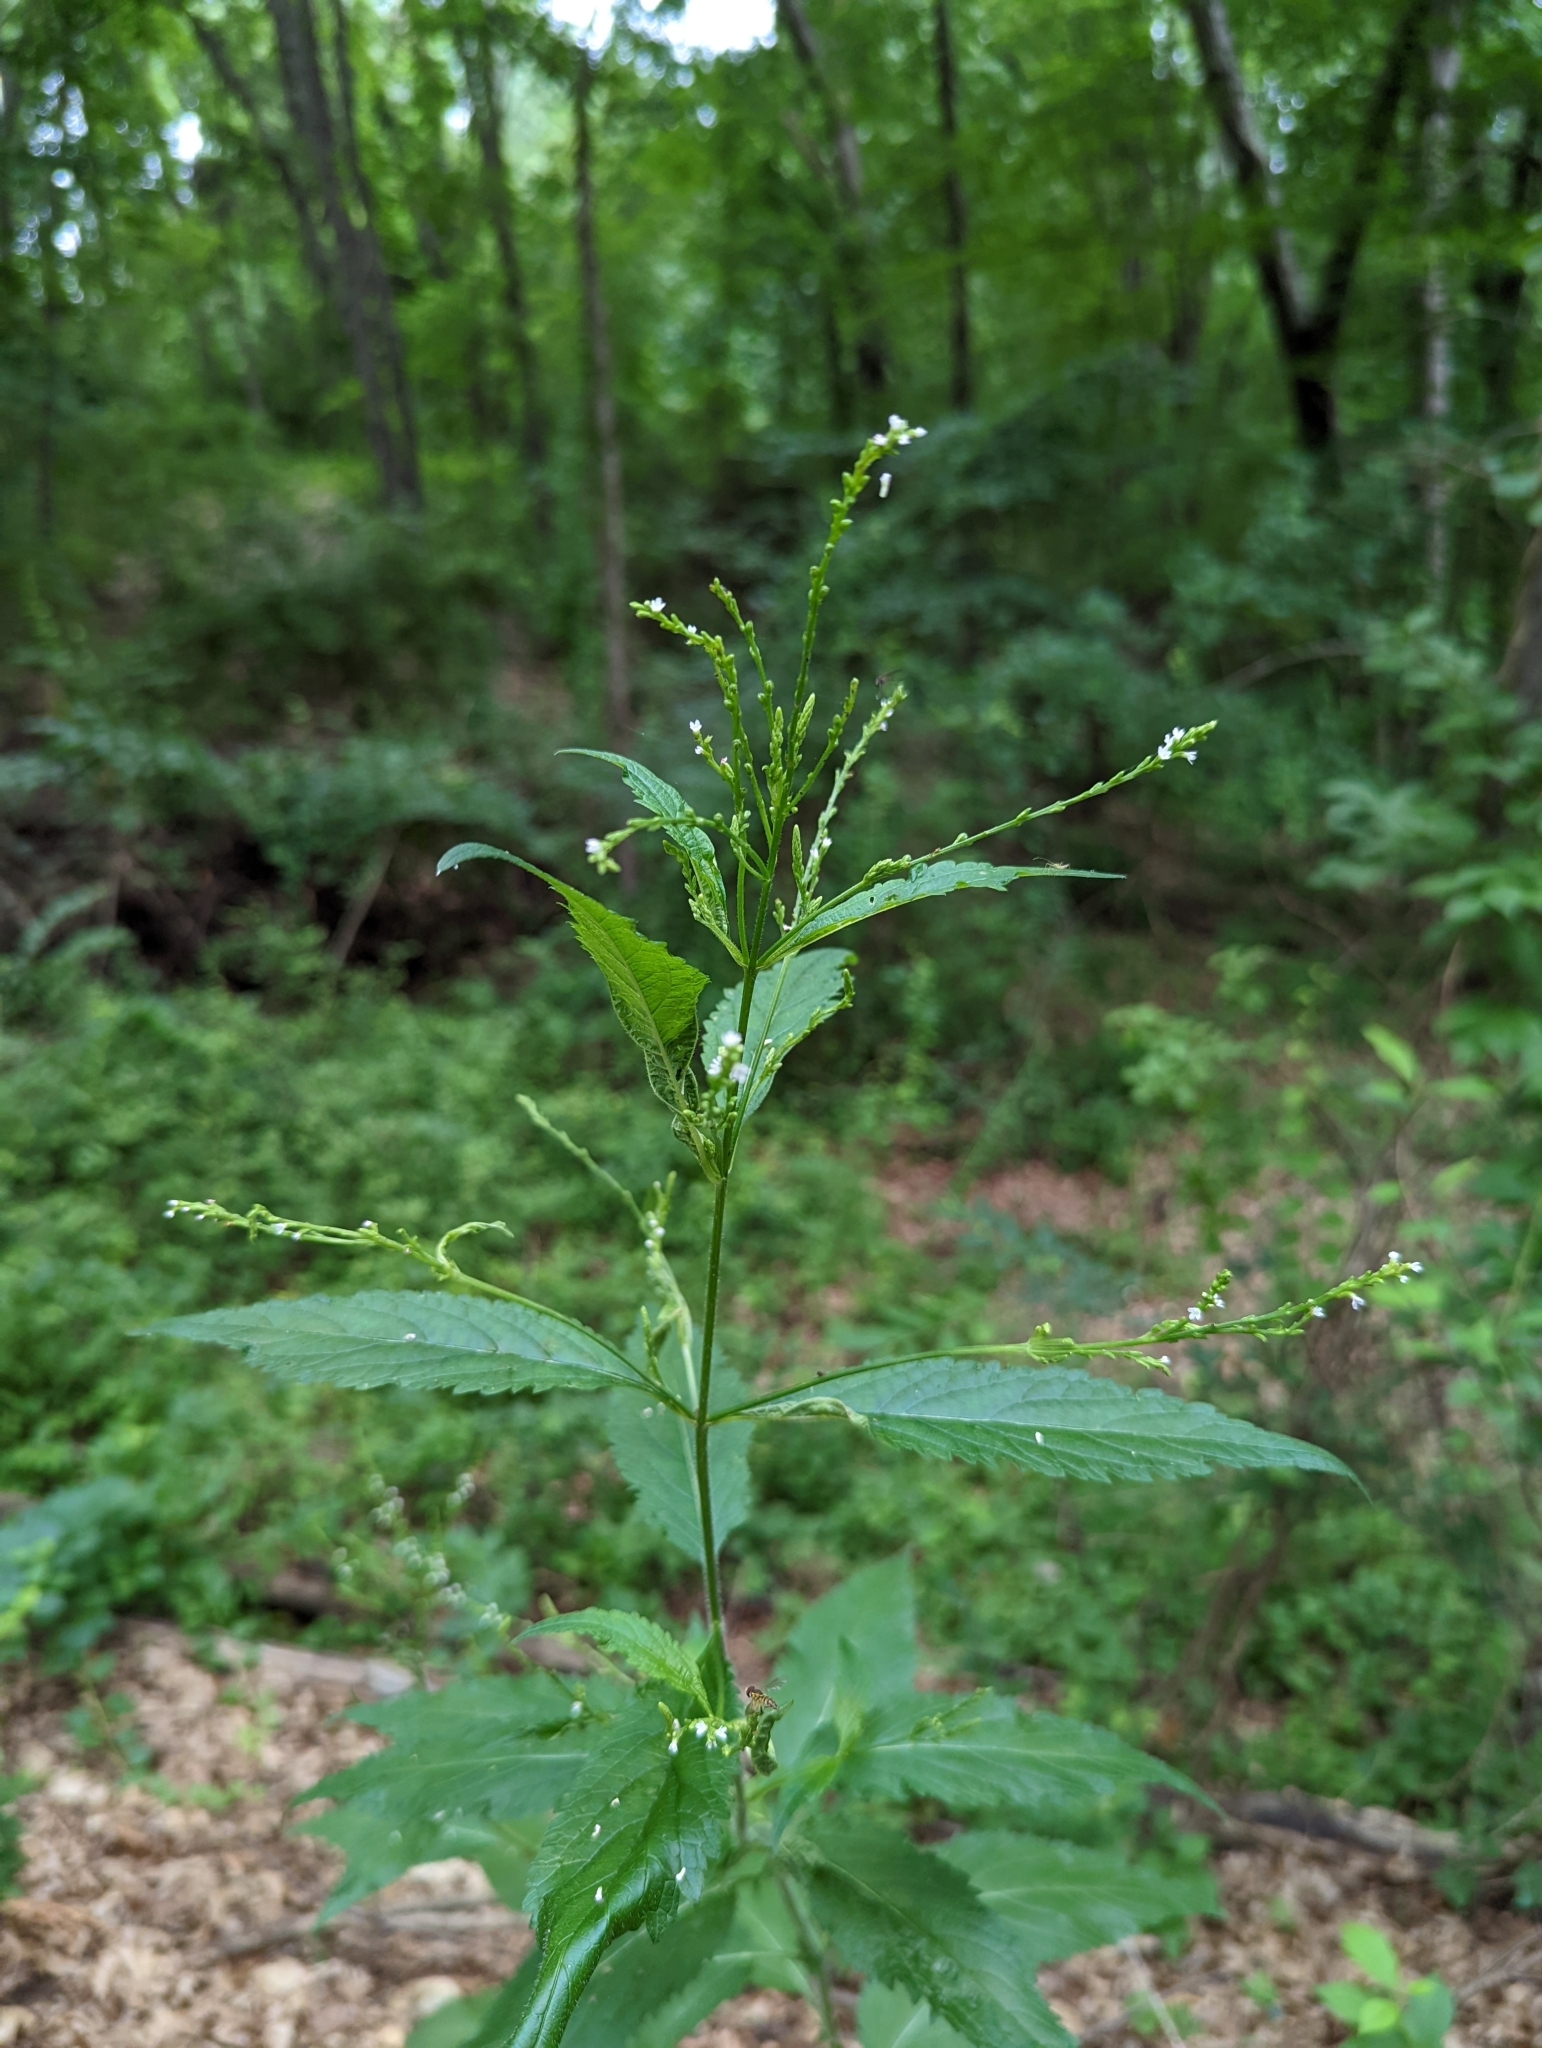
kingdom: Plantae
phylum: Tracheophyta
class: Magnoliopsida
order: Lamiales
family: Verbenaceae
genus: Verbena
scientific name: Verbena urticifolia
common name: Nettle-leaved vervain
